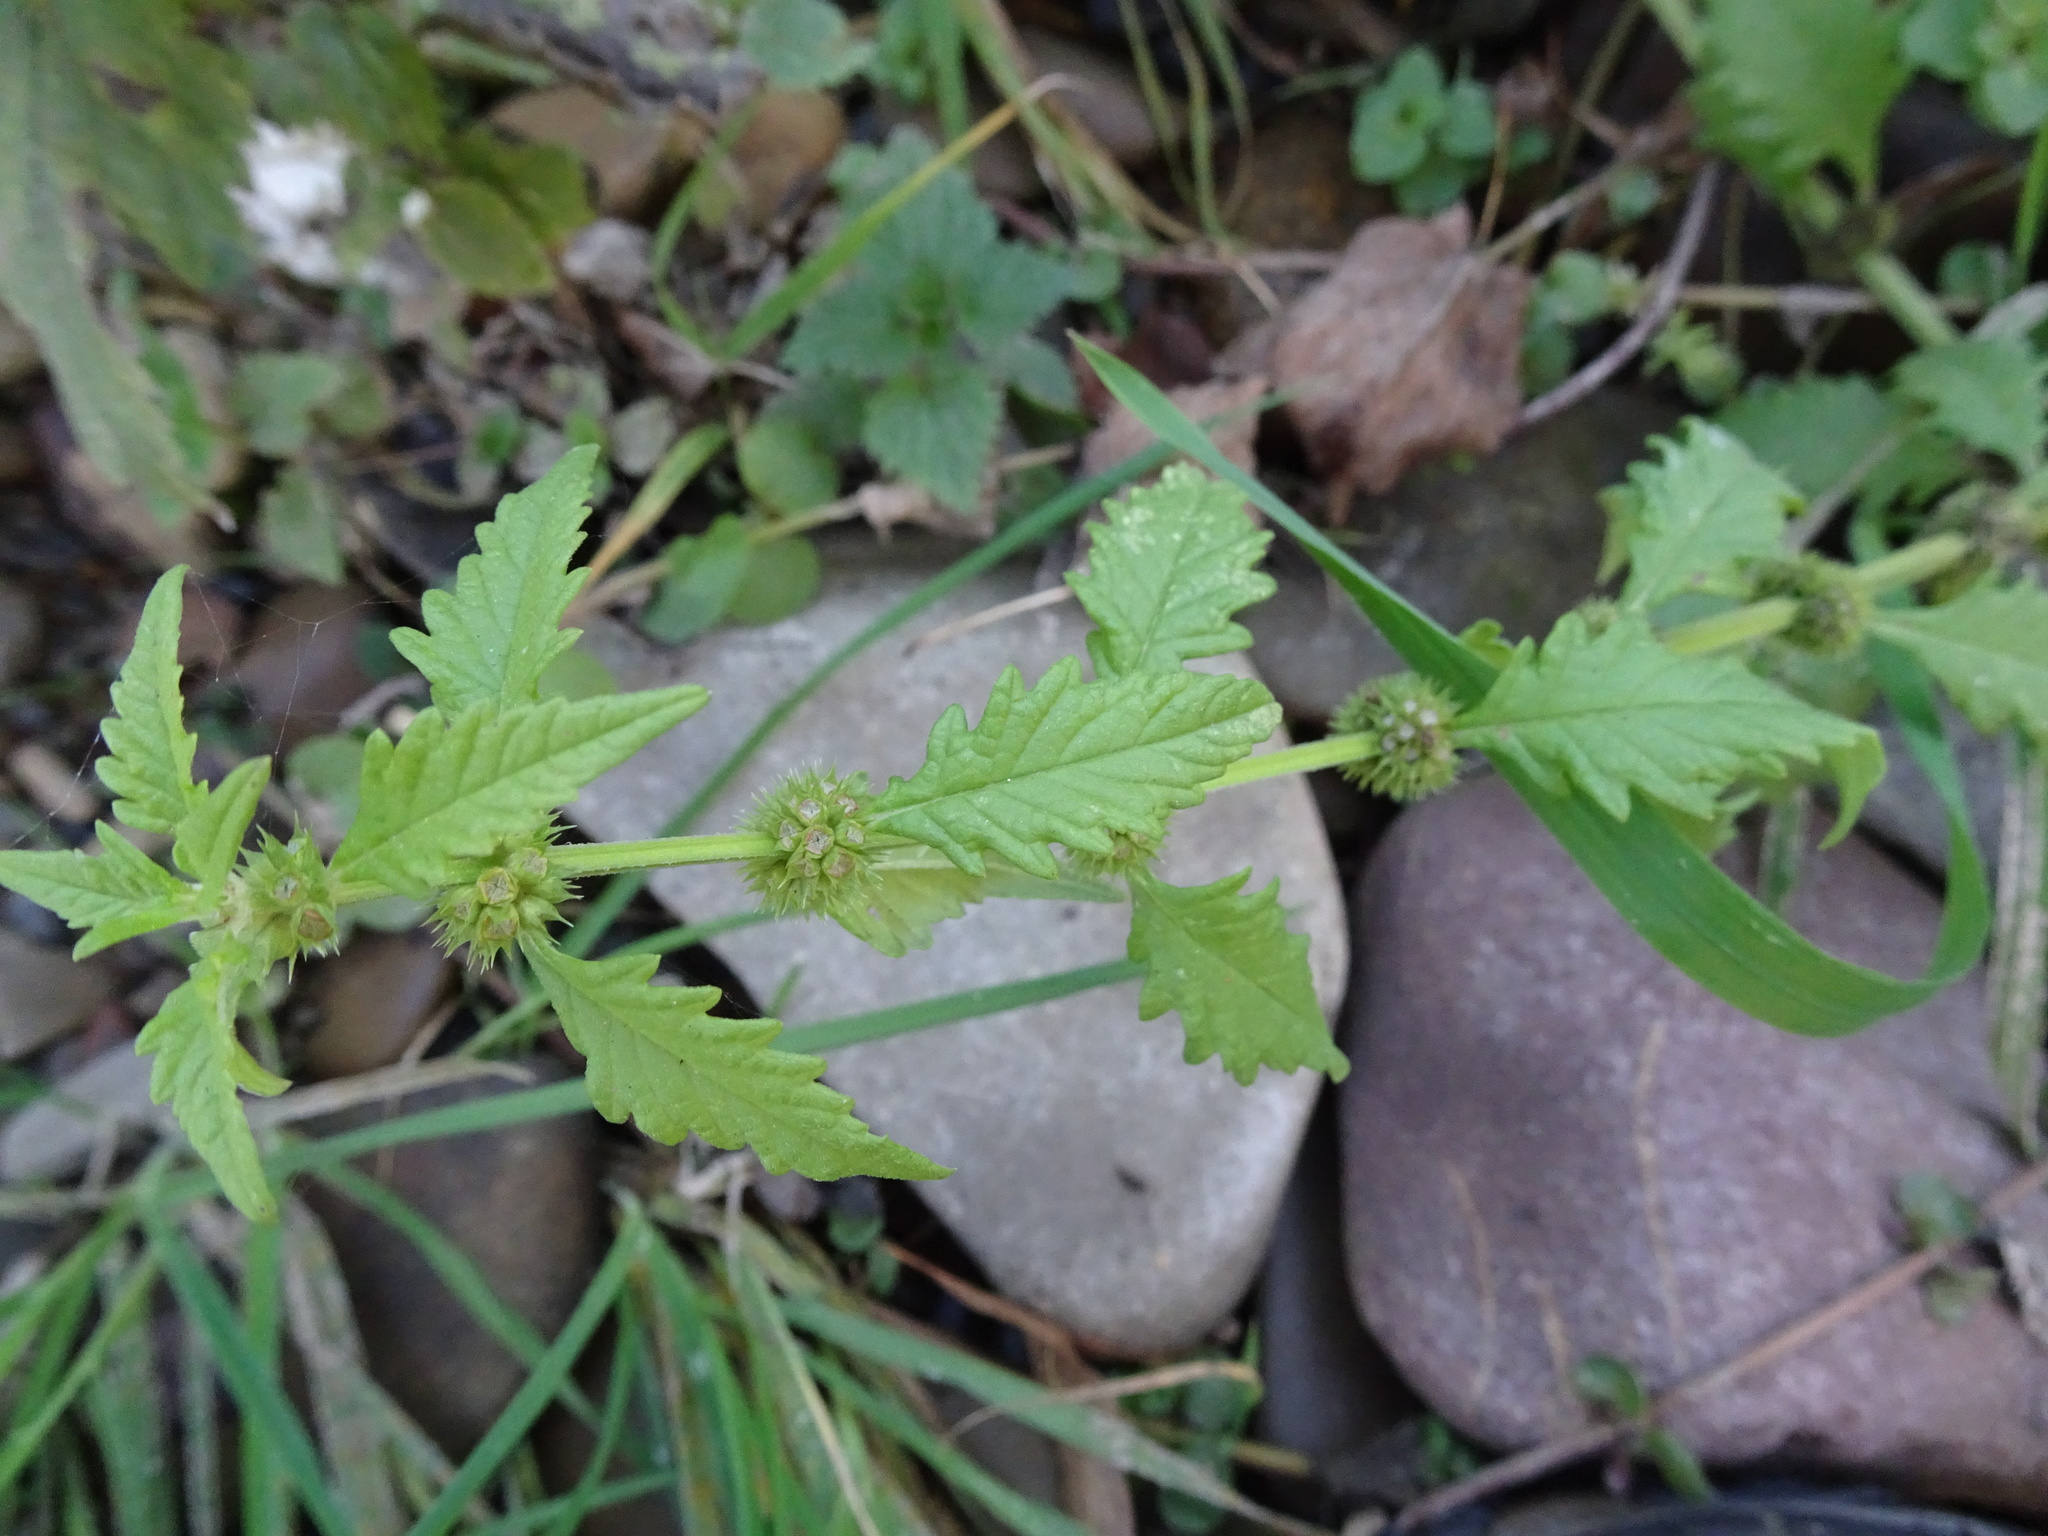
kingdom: Plantae
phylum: Tracheophyta
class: Magnoliopsida
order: Lamiales
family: Lamiaceae
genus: Lycopus
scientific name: Lycopus europaeus
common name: European bugleweed
